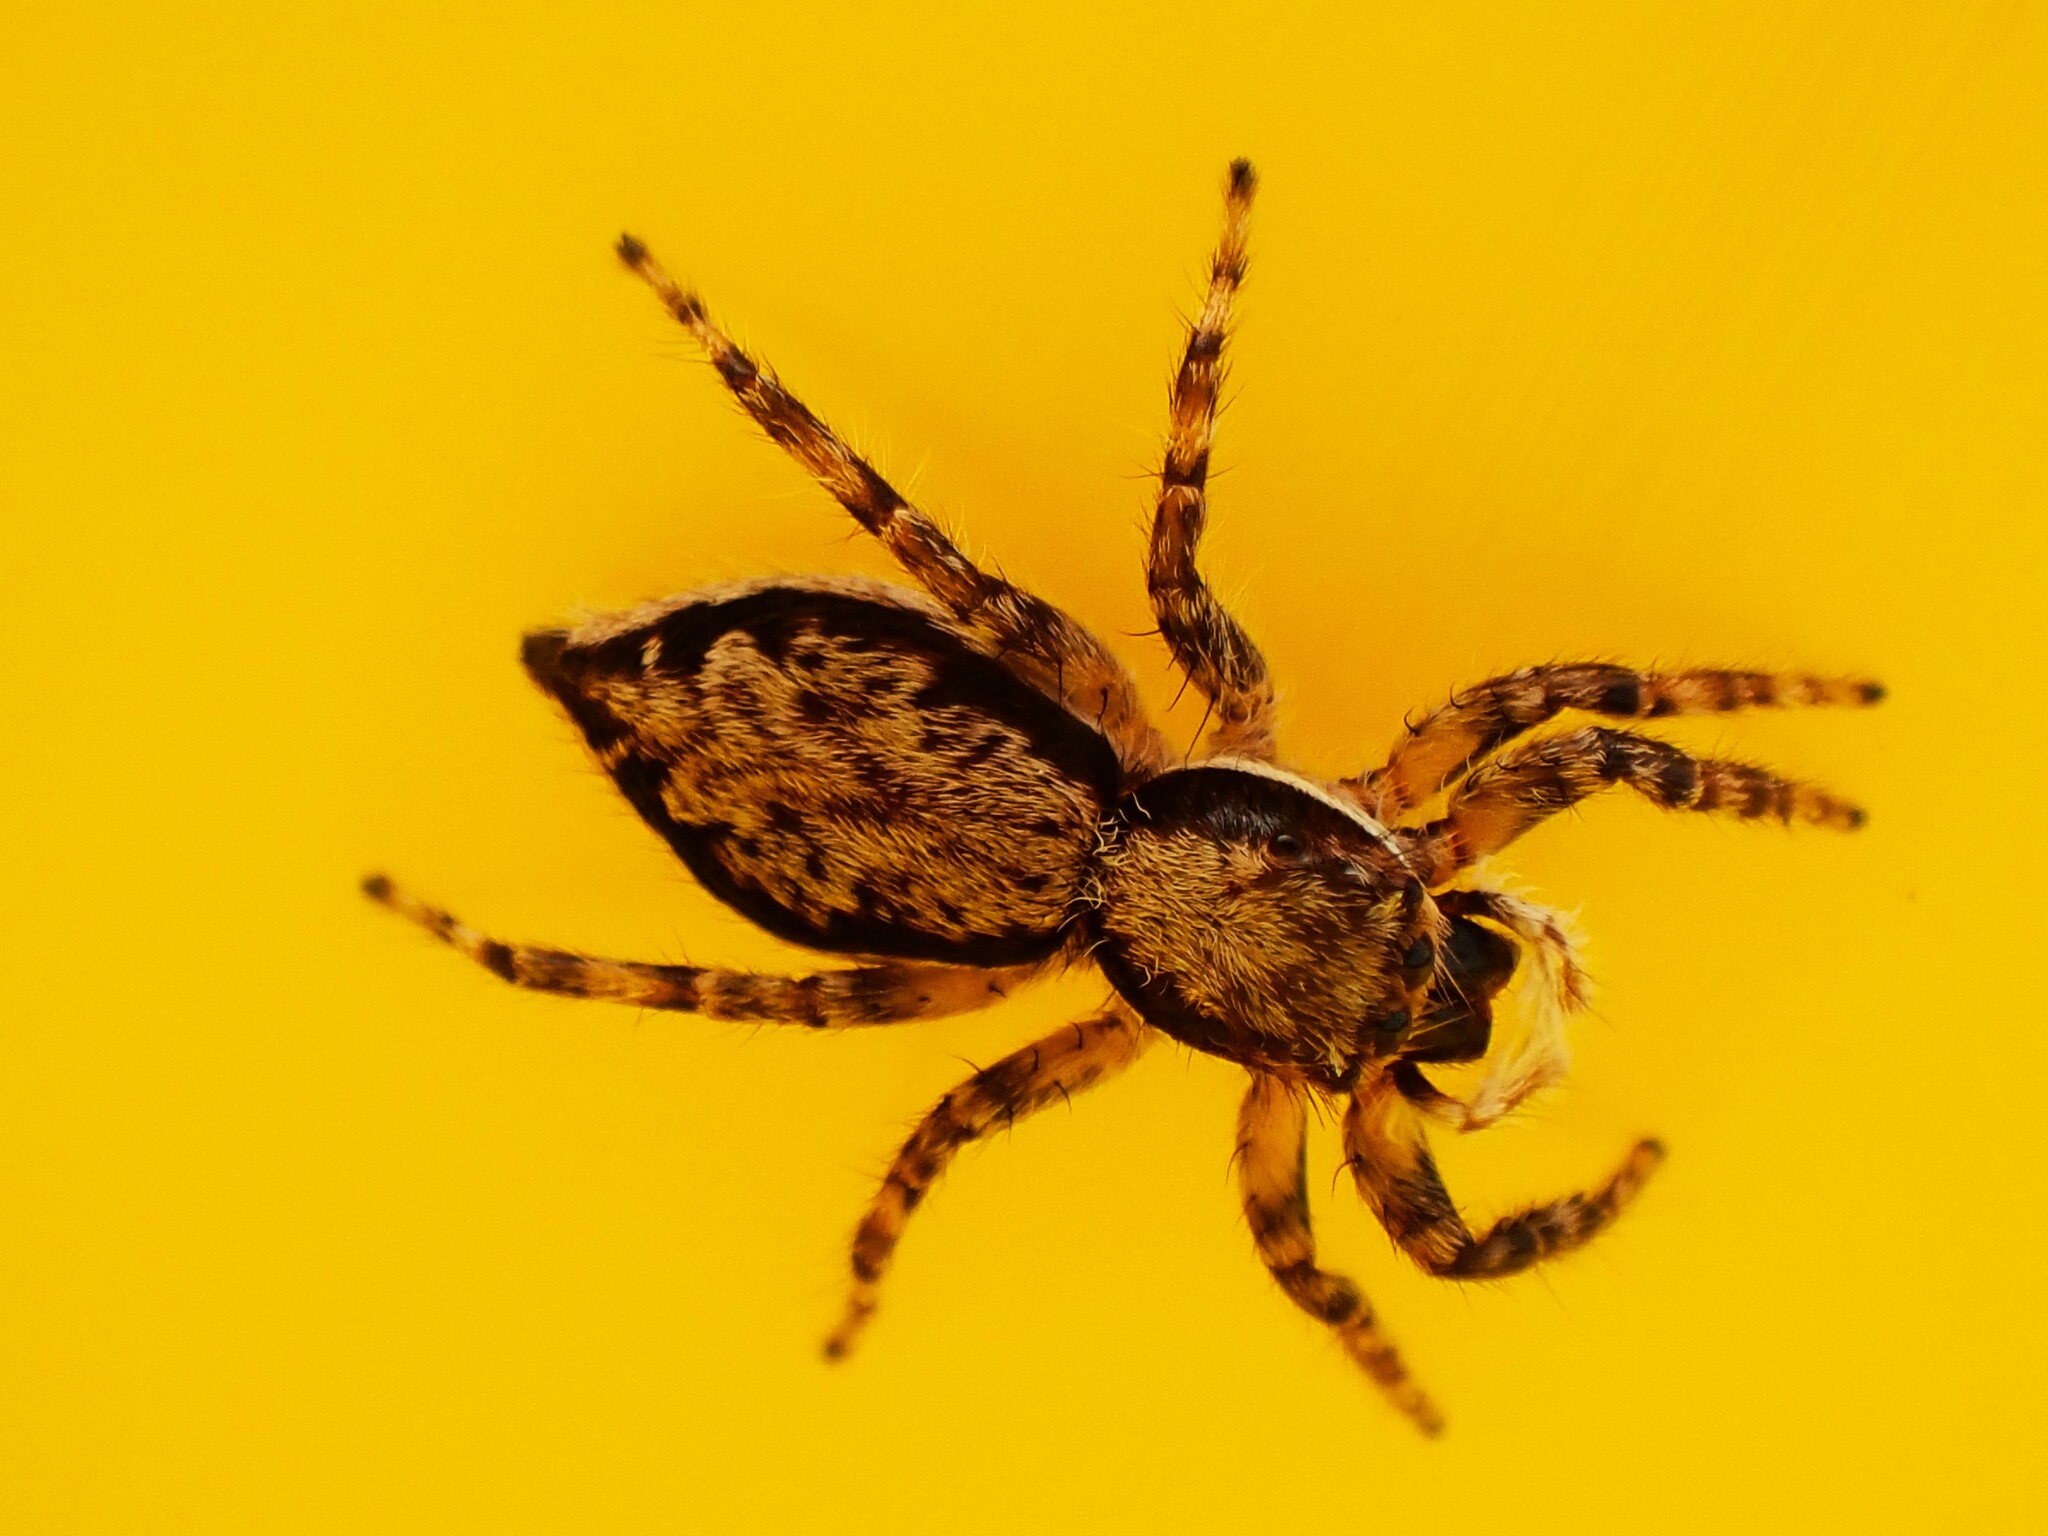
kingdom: Animalia
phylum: Arthropoda
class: Arachnida
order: Araneae
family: Salticidae
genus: Menemerus
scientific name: Menemerus bivittatus
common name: Gray wall jumper
